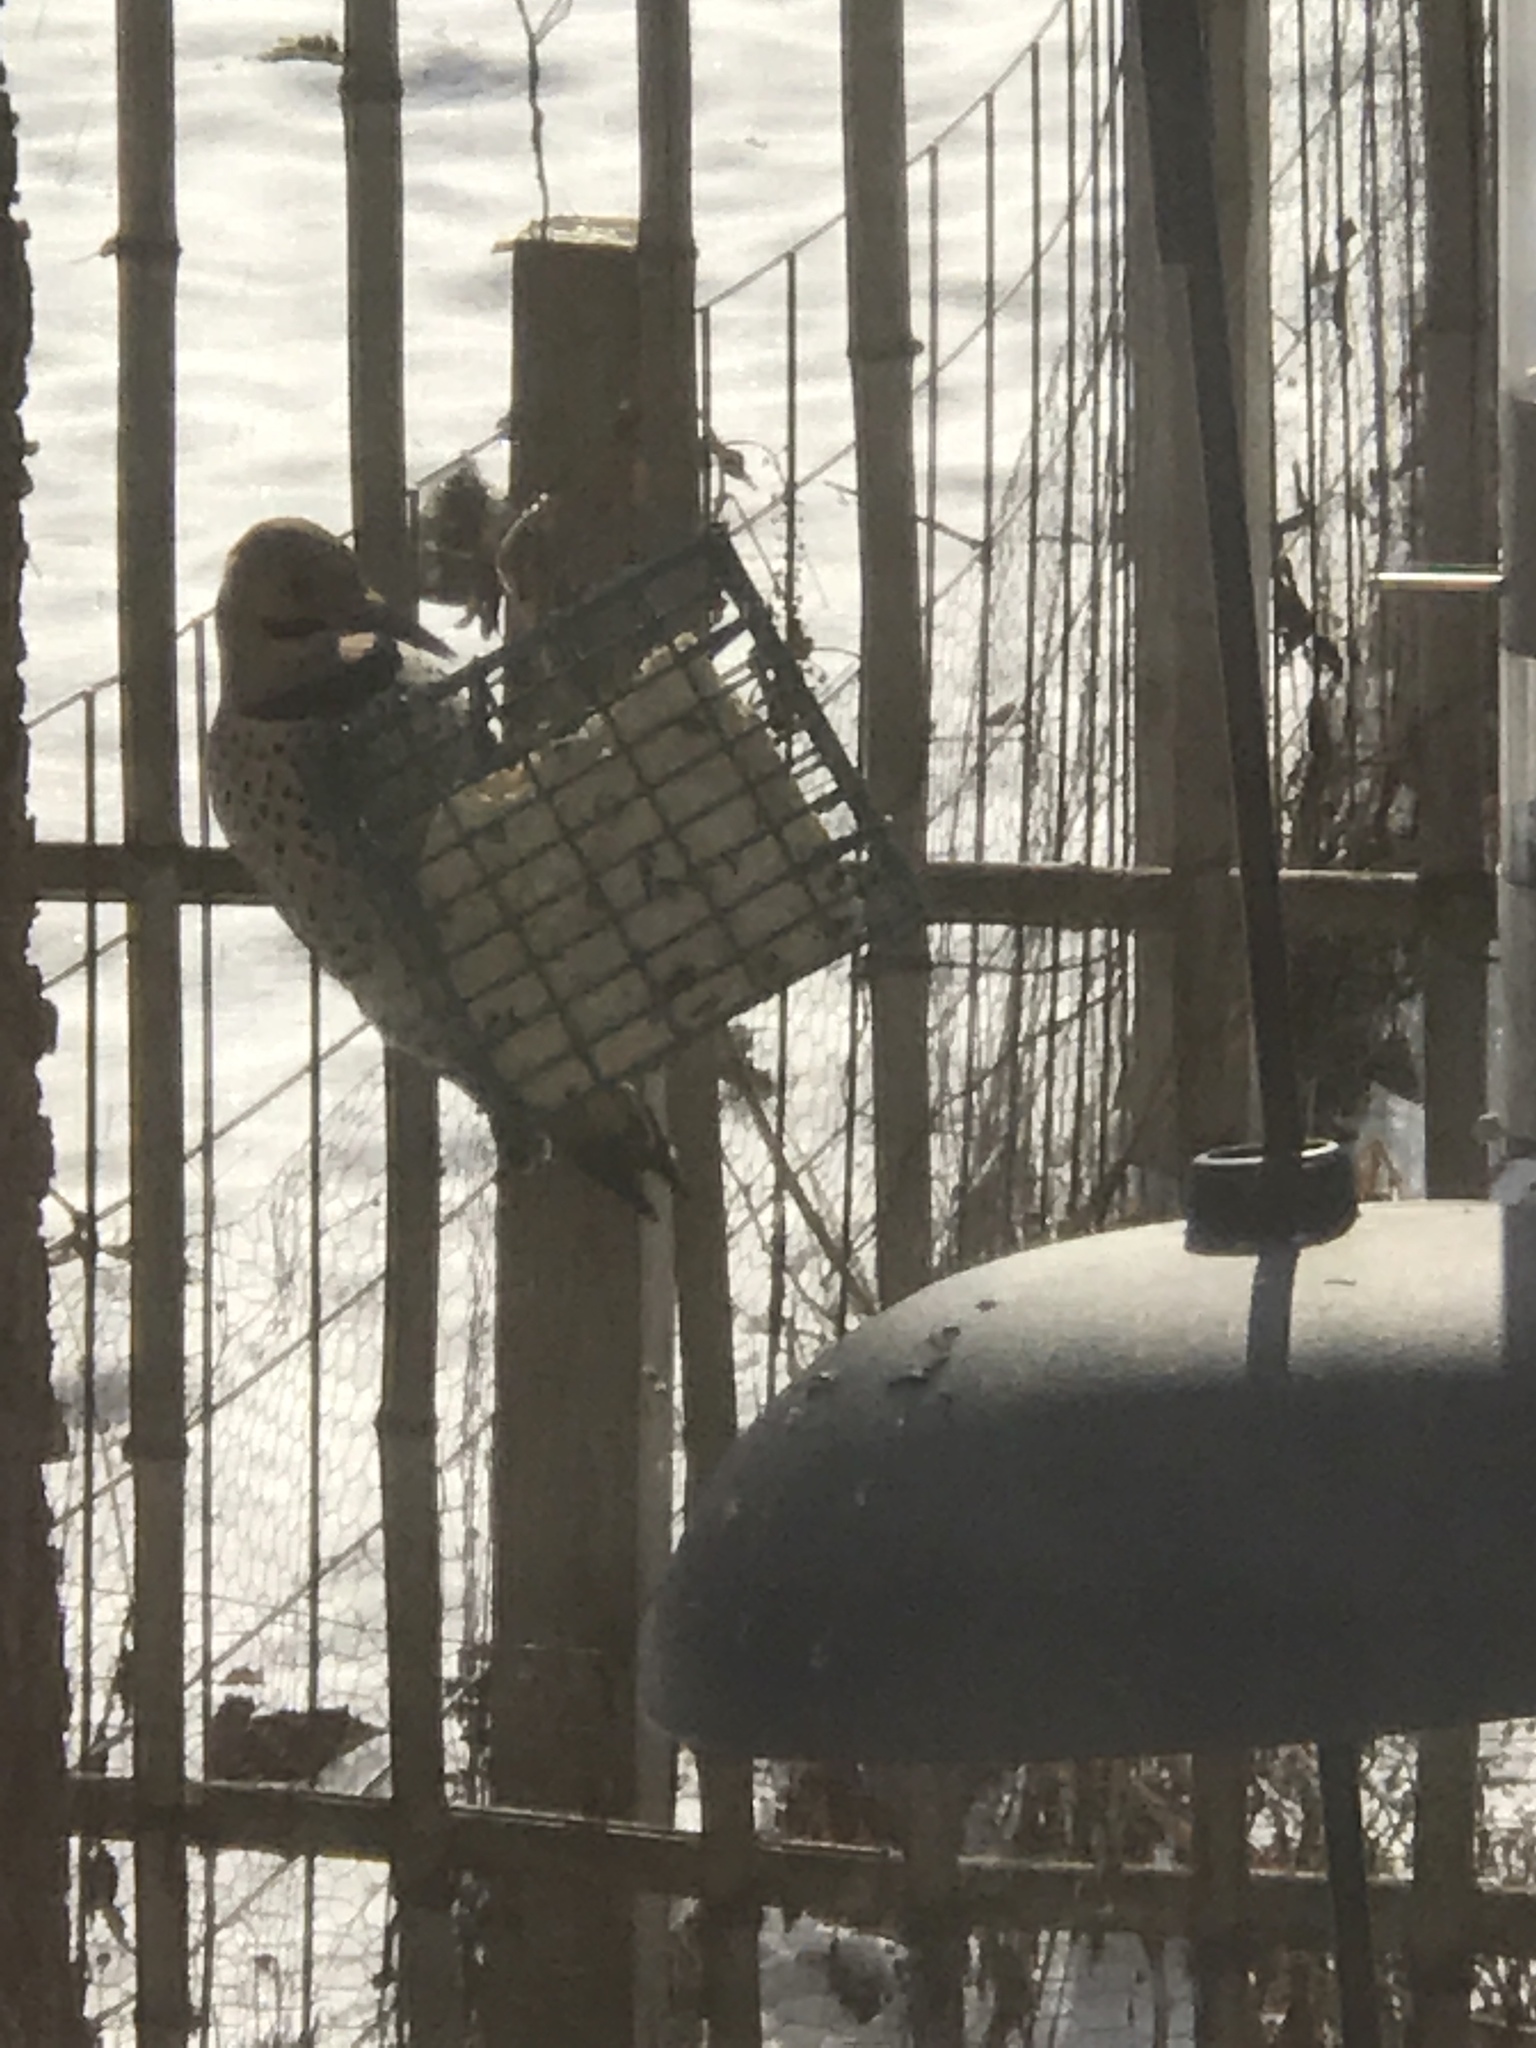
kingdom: Animalia
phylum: Chordata
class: Aves
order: Piciformes
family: Picidae
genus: Colaptes
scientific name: Colaptes auratus
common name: Northern flicker
